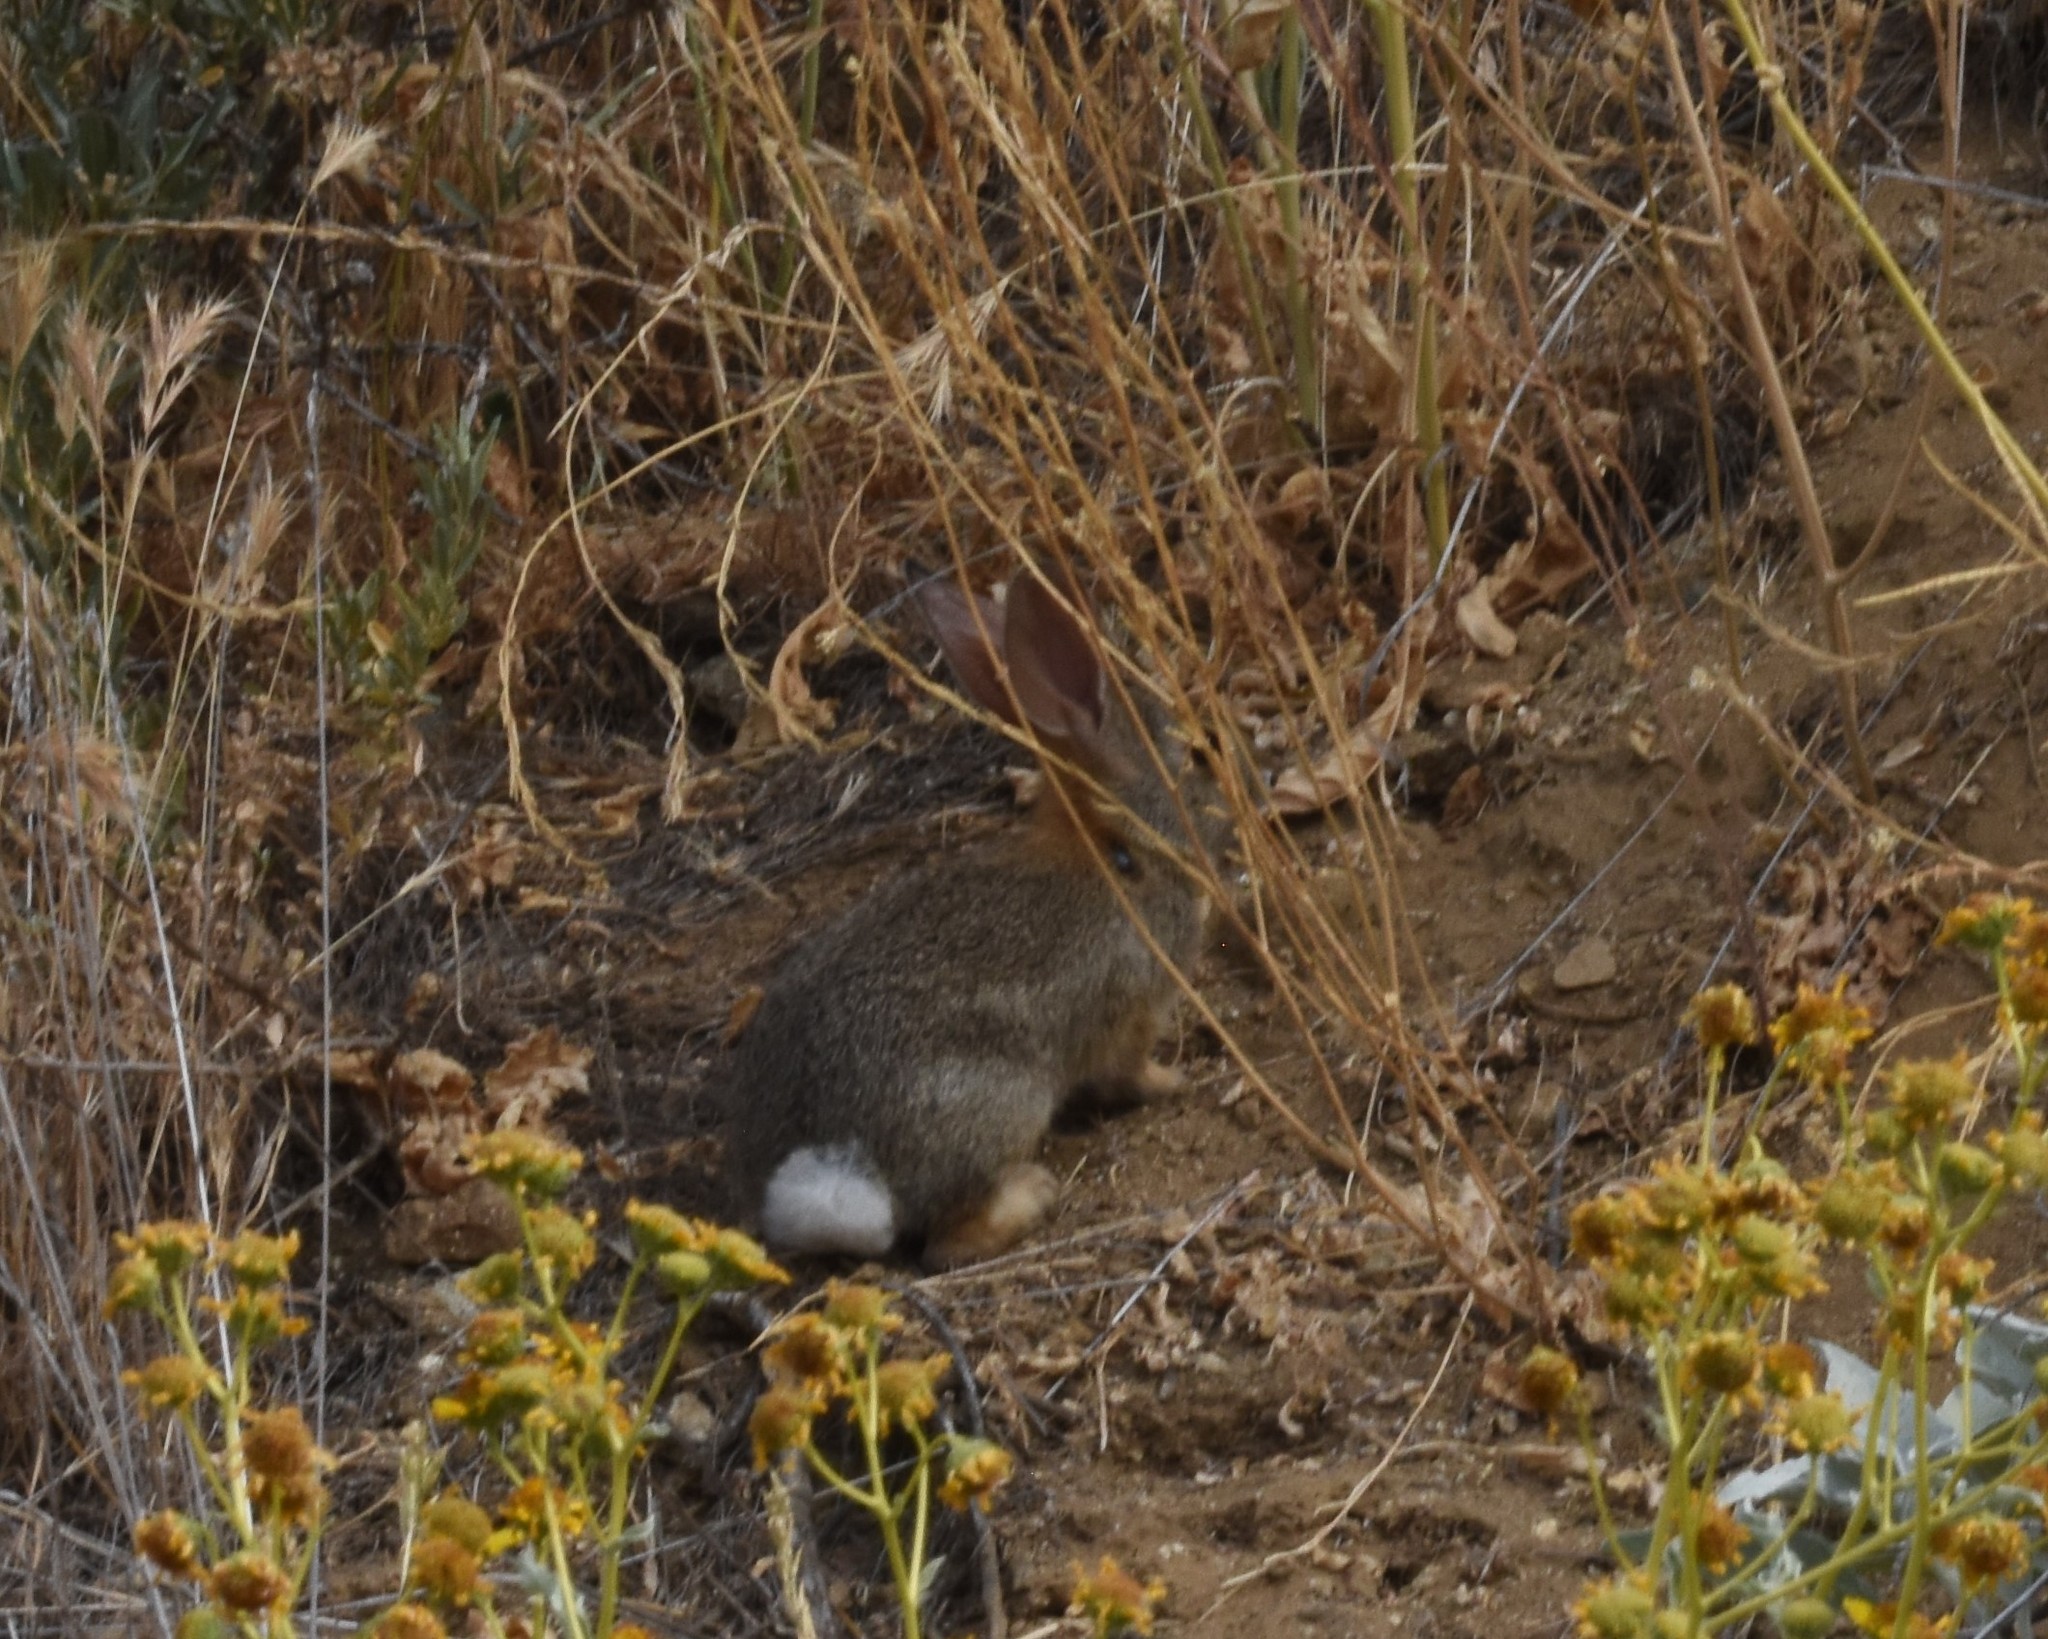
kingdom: Animalia
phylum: Chordata
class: Mammalia
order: Lagomorpha
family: Leporidae
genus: Sylvilagus
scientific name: Sylvilagus audubonii
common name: Desert cottontail
